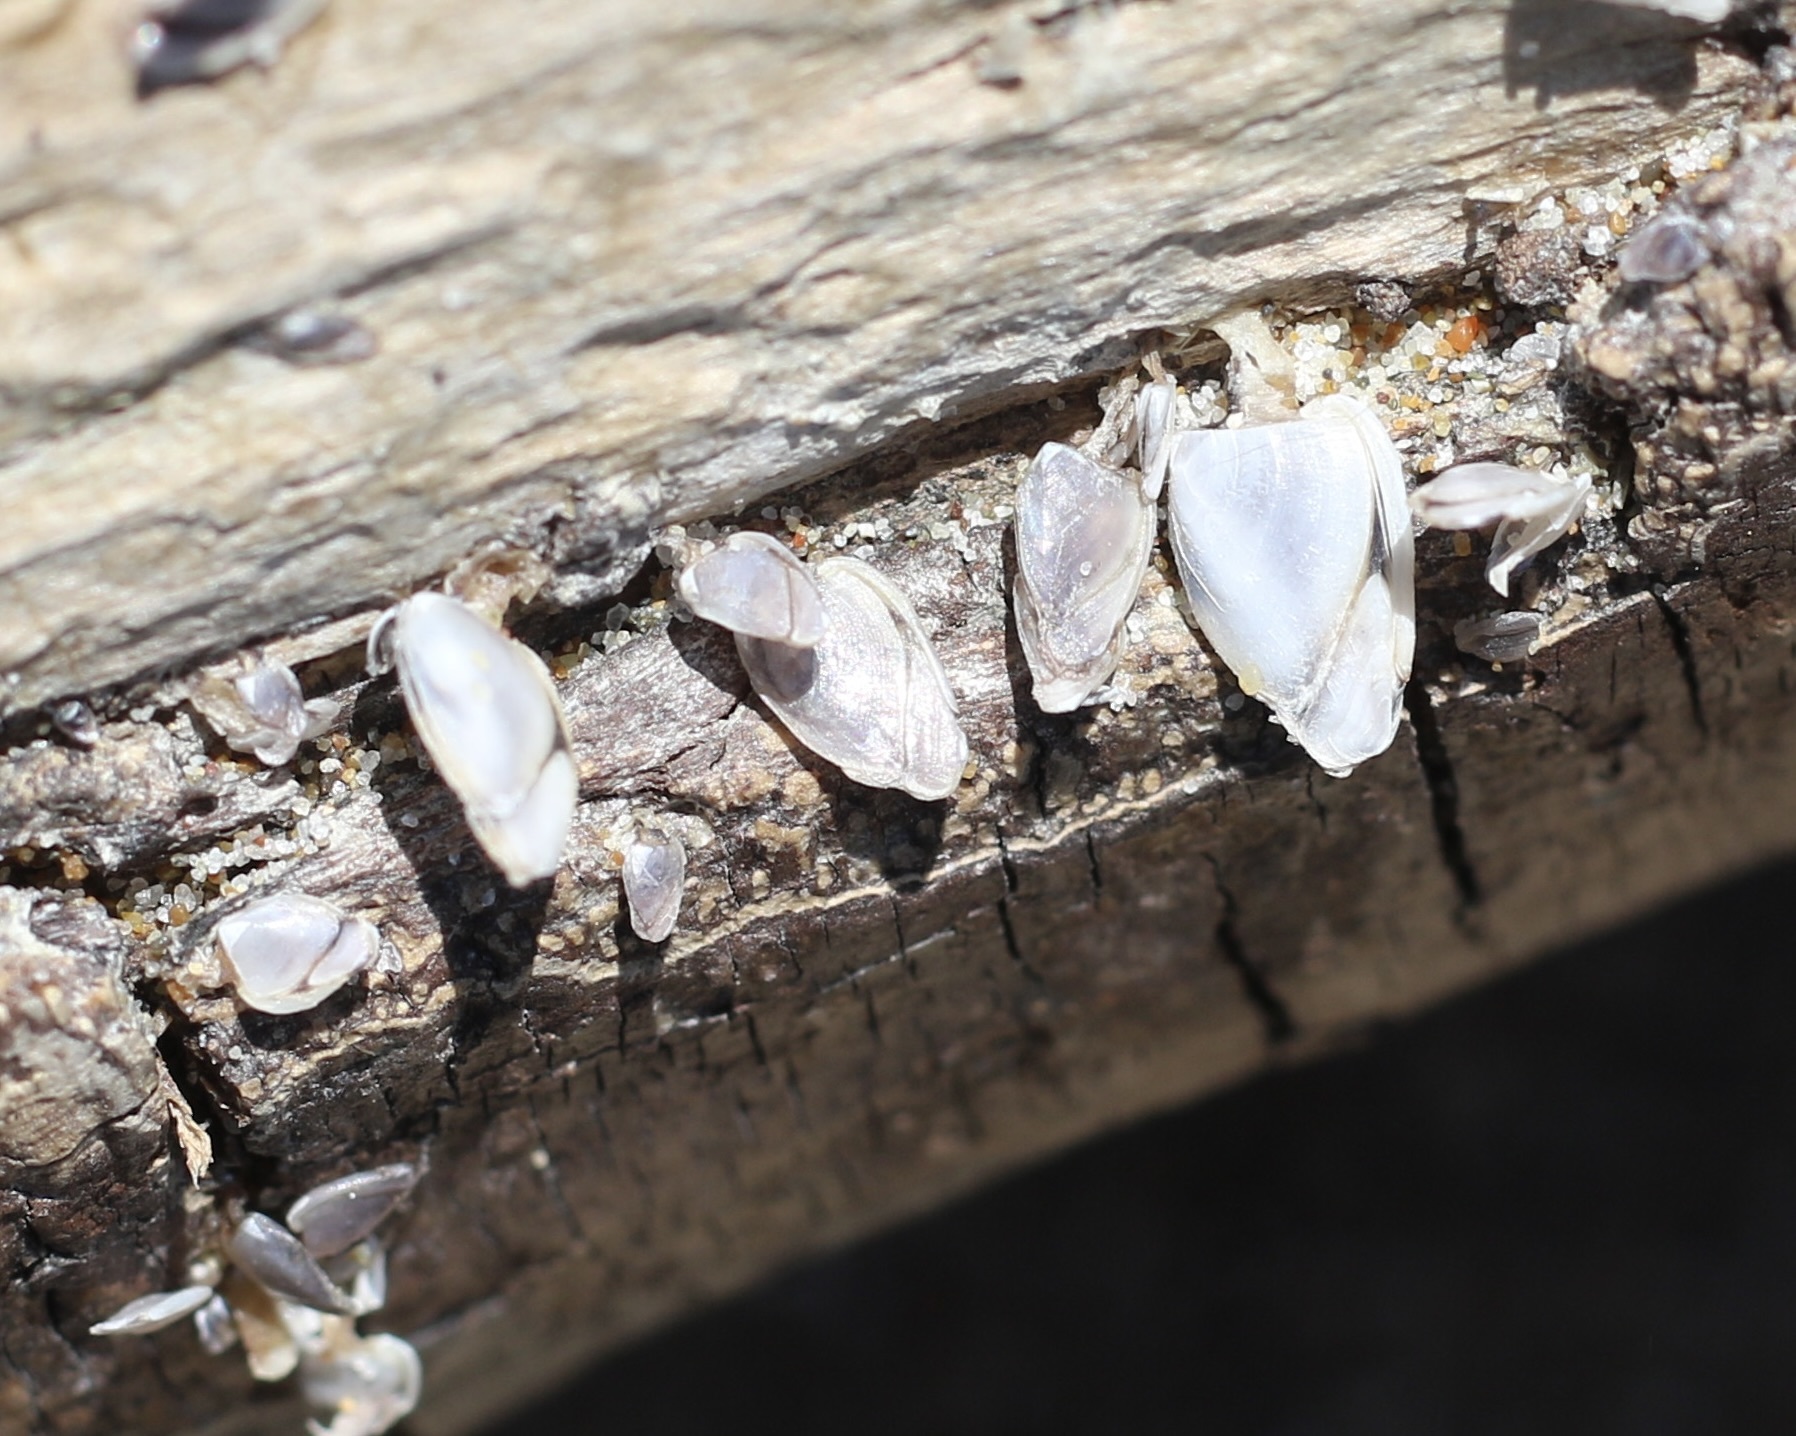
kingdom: Animalia
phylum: Arthropoda
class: Maxillopoda
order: Pedunculata
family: Lepadidae
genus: Lepas
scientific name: Lepas anatifera
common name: Common goose barnacle
